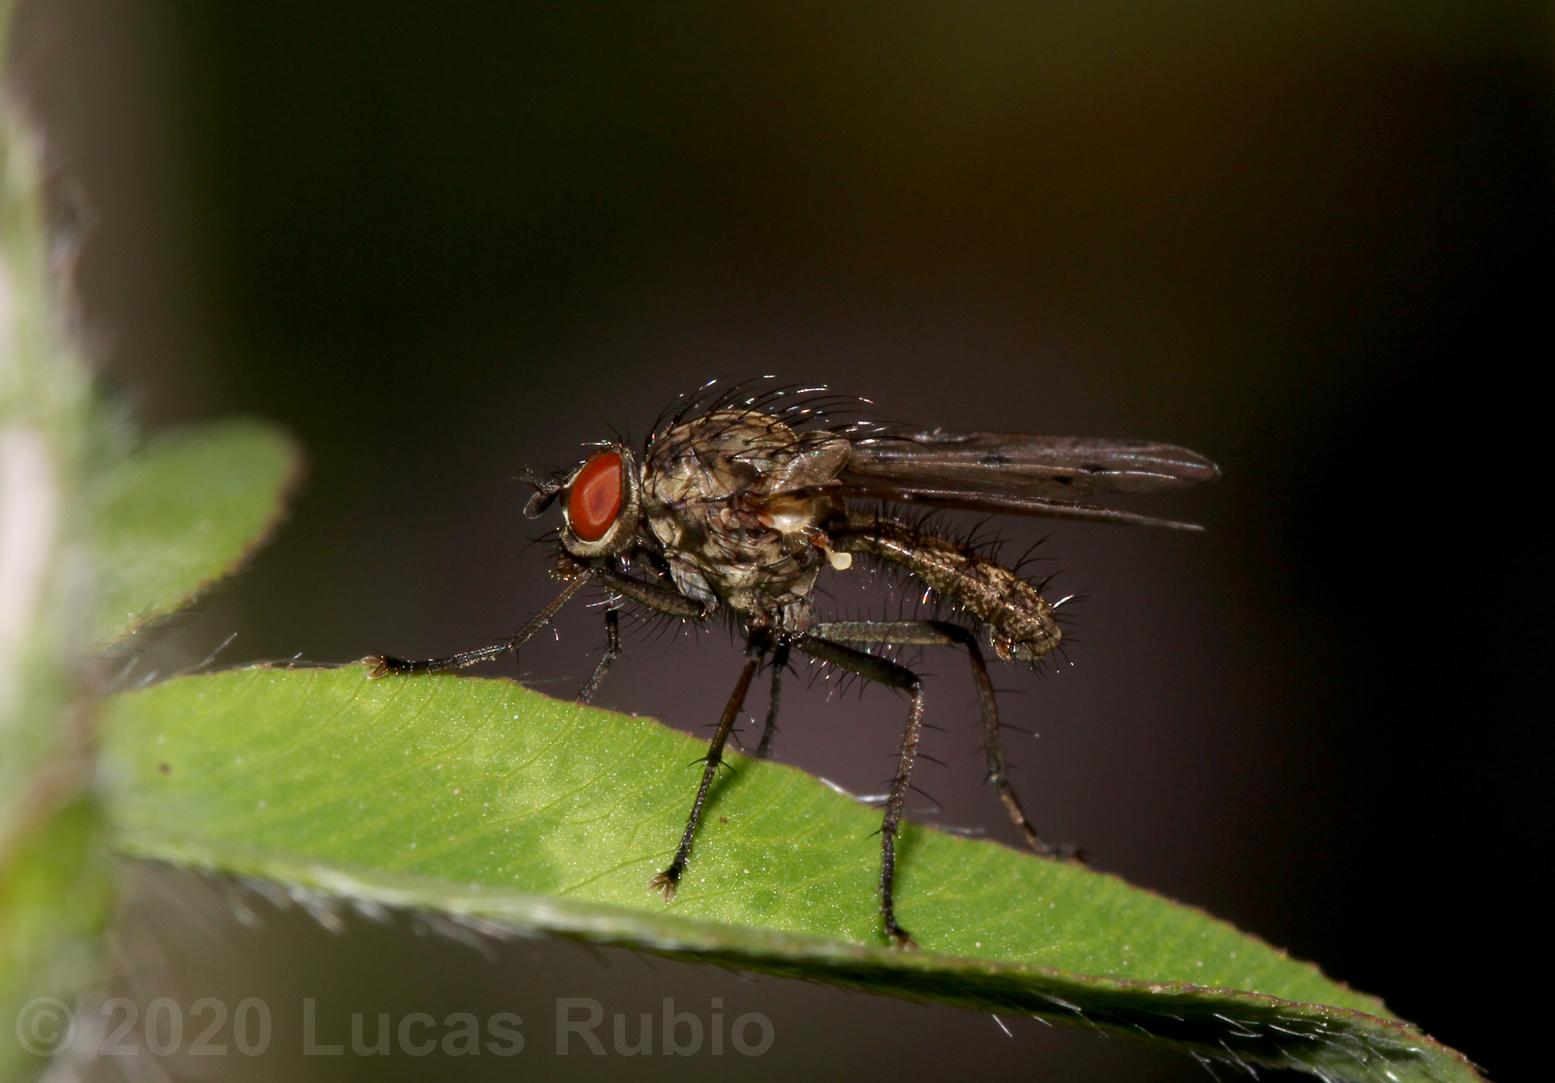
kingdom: Animalia
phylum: Arthropoda
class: Insecta
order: Diptera
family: Anthomyiidae
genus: Anthomyia
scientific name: Anthomyia
